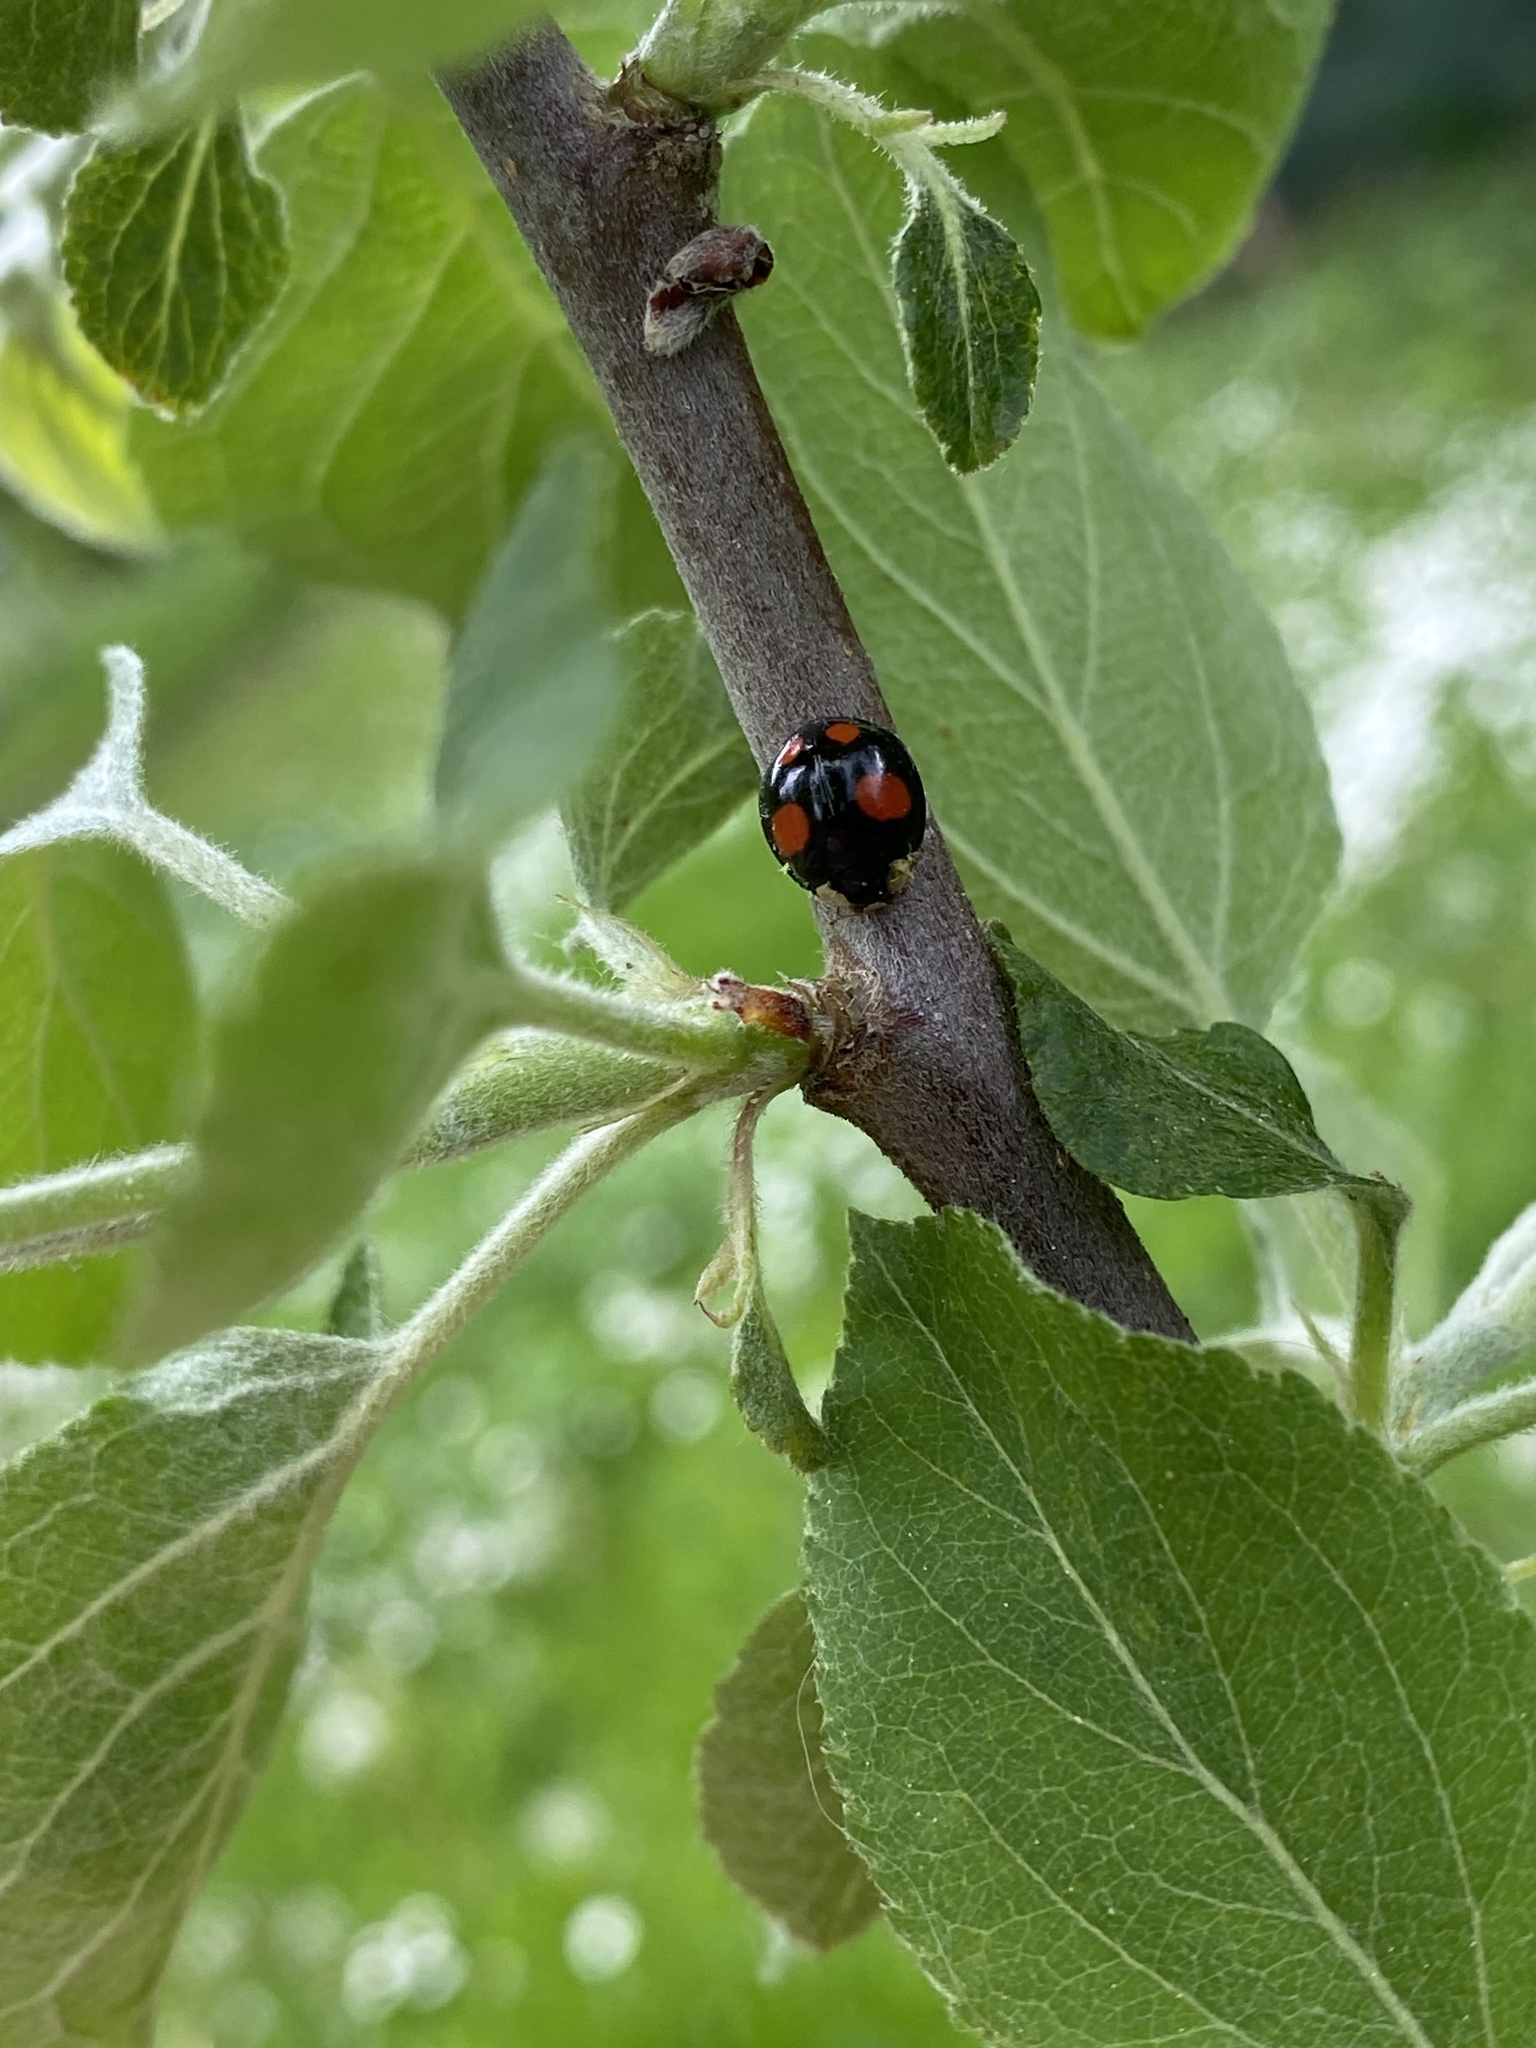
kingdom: Animalia
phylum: Arthropoda
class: Insecta
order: Coleoptera
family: Coccinellidae
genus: Harmonia
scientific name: Harmonia axyridis
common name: Harlequin ladybird
